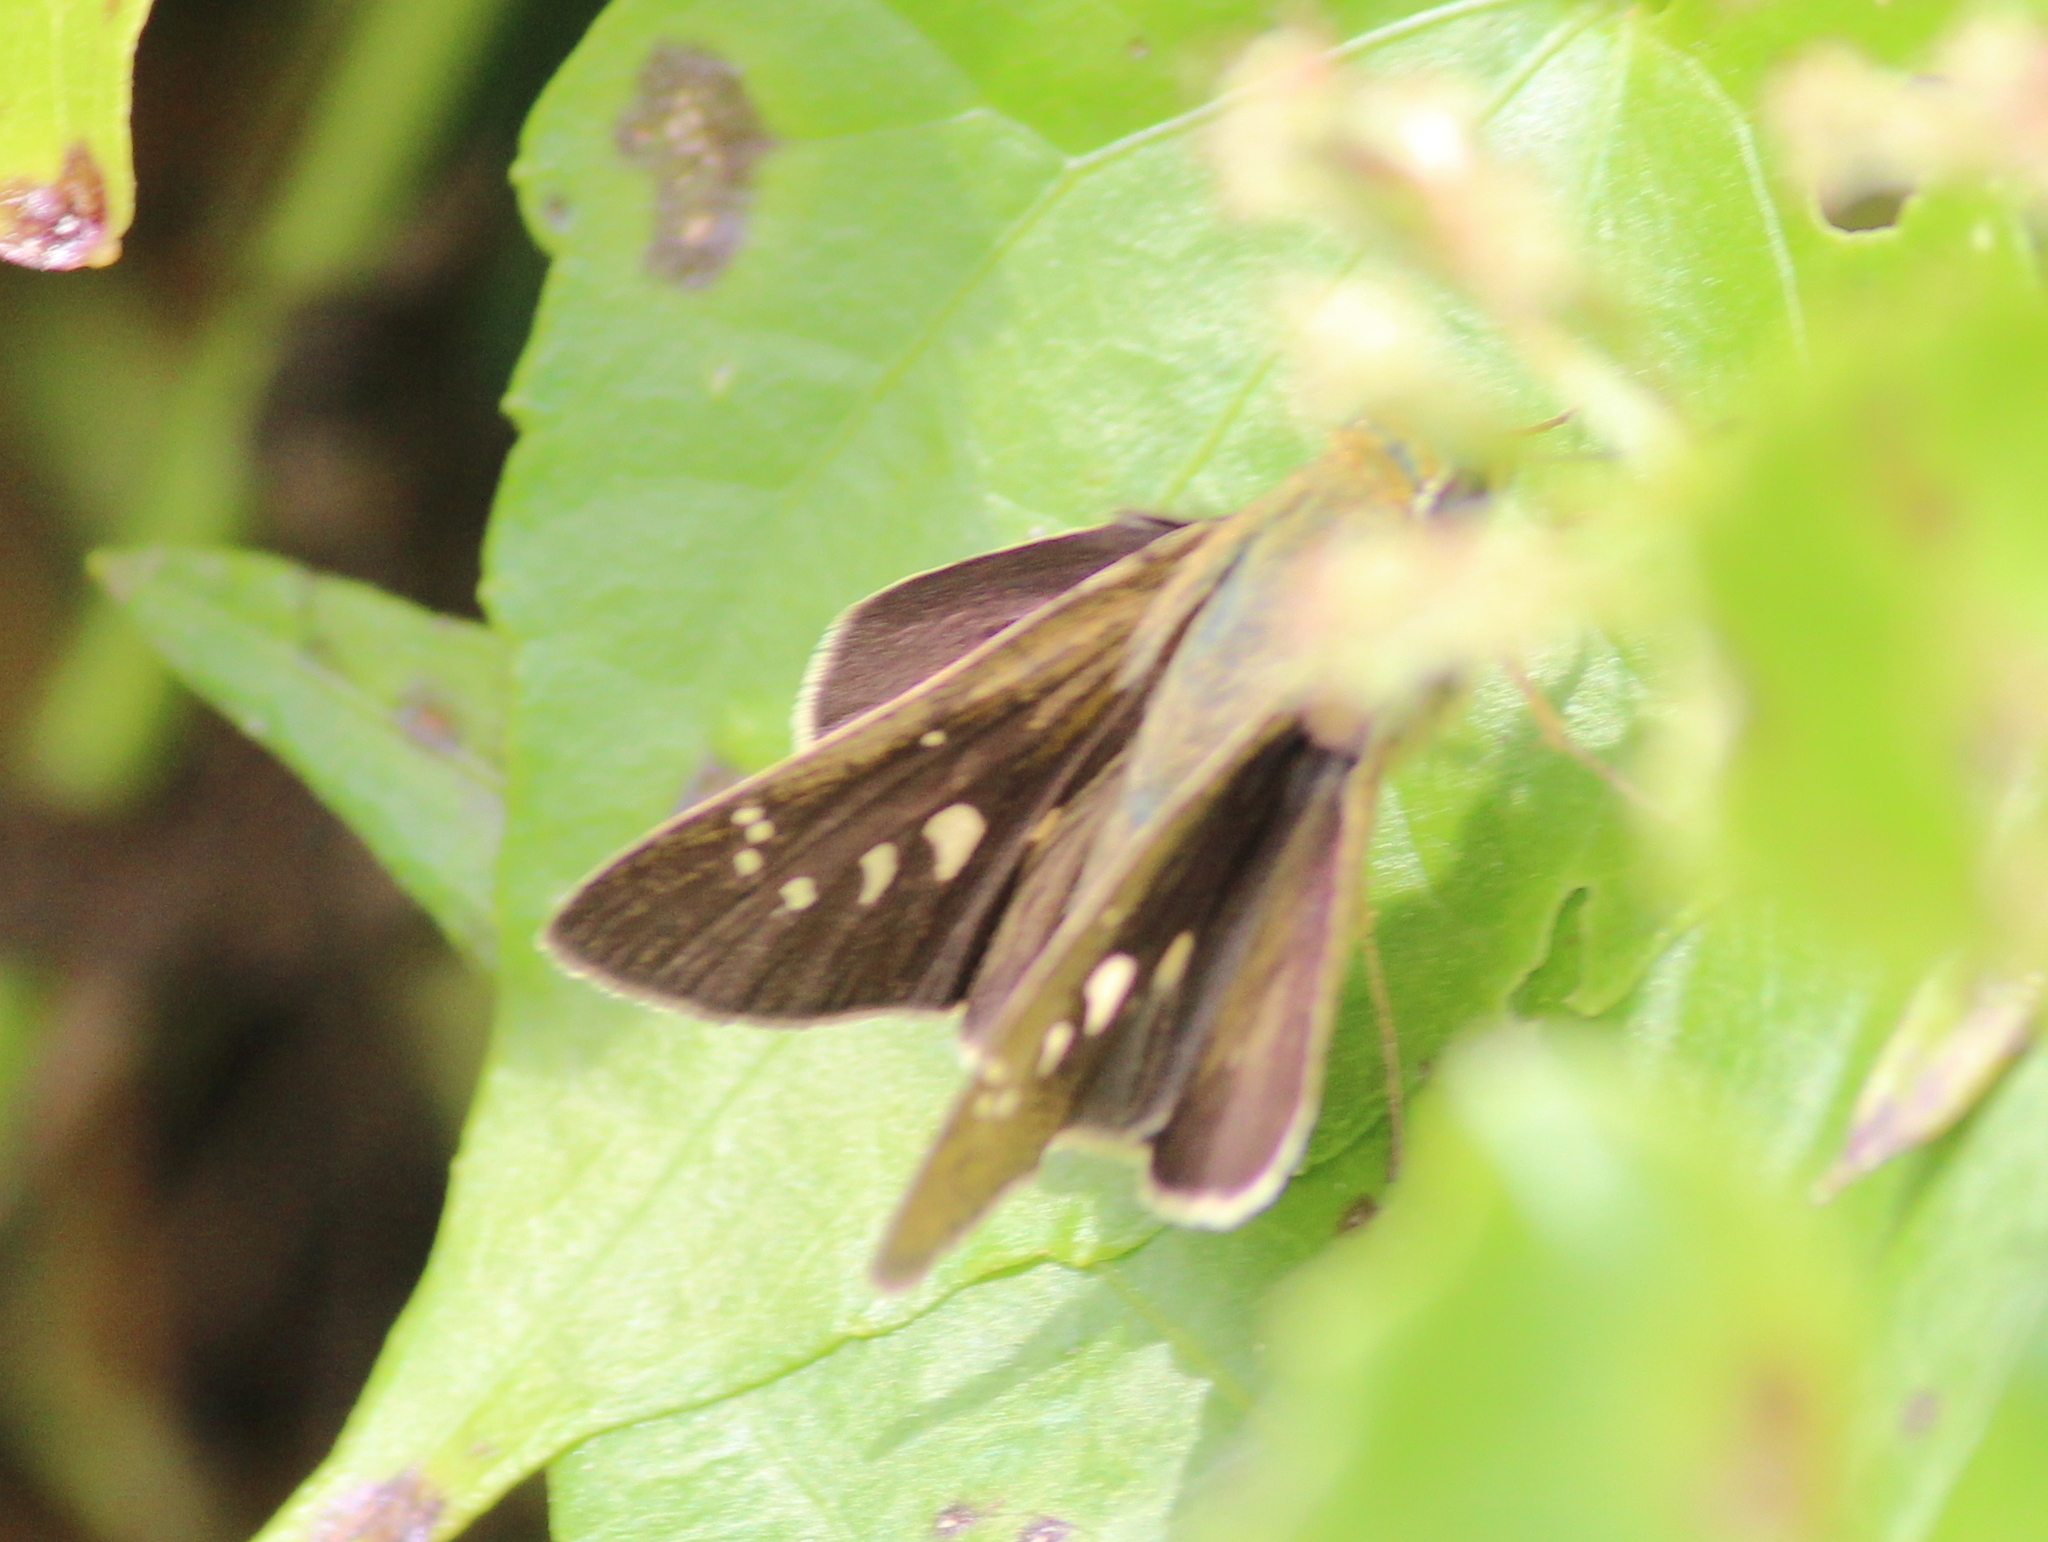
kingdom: Animalia
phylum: Arthropoda
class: Insecta
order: Lepidoptera
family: Hesperiidae
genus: Borbo
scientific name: Borbo cinnara
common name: Formosan swift
